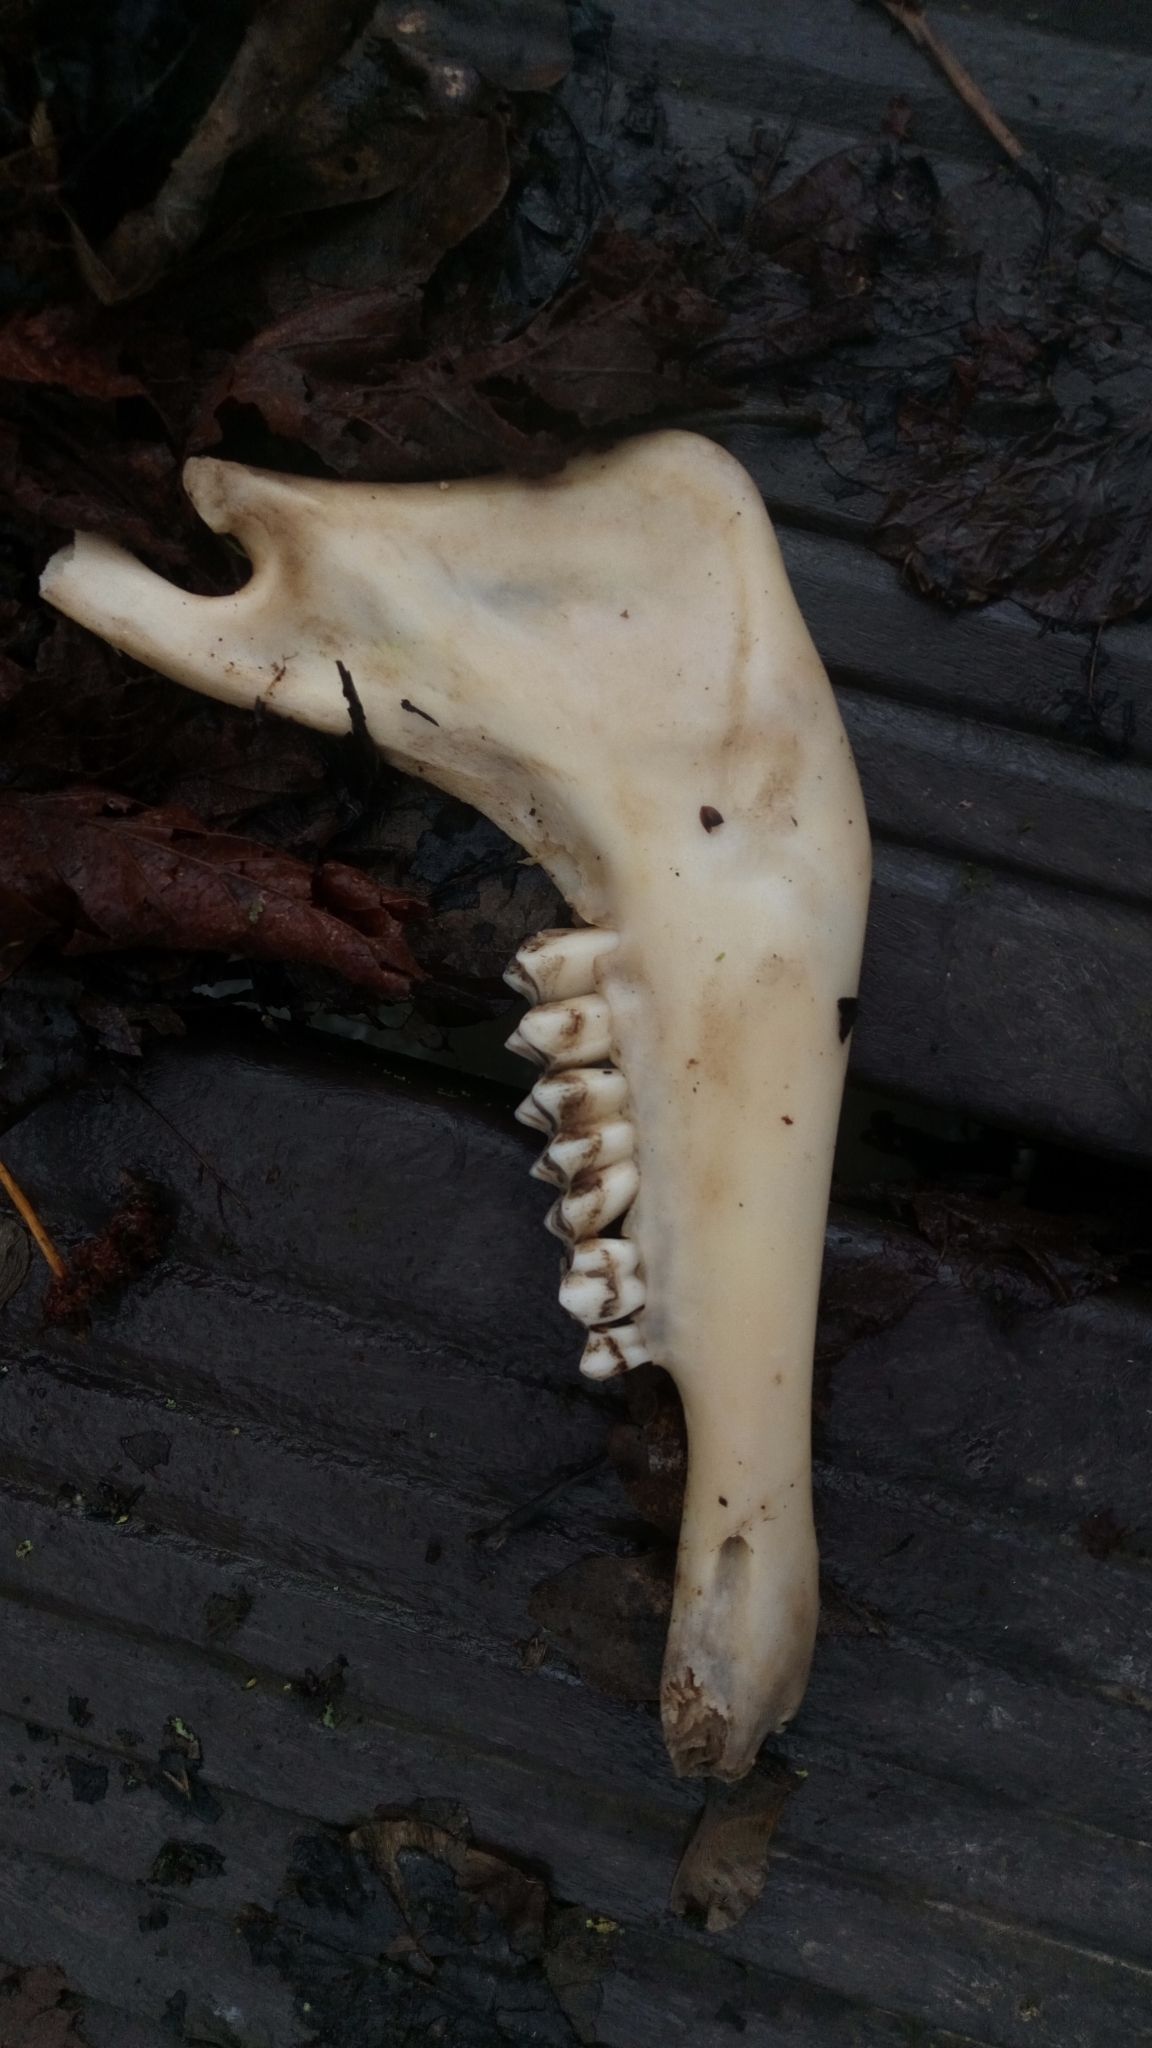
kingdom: Animalia
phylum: Chordata
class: Mammalia
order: Artiodactyla
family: Bovidae
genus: Ovis
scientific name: Ovis aries
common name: Domestic sheep
